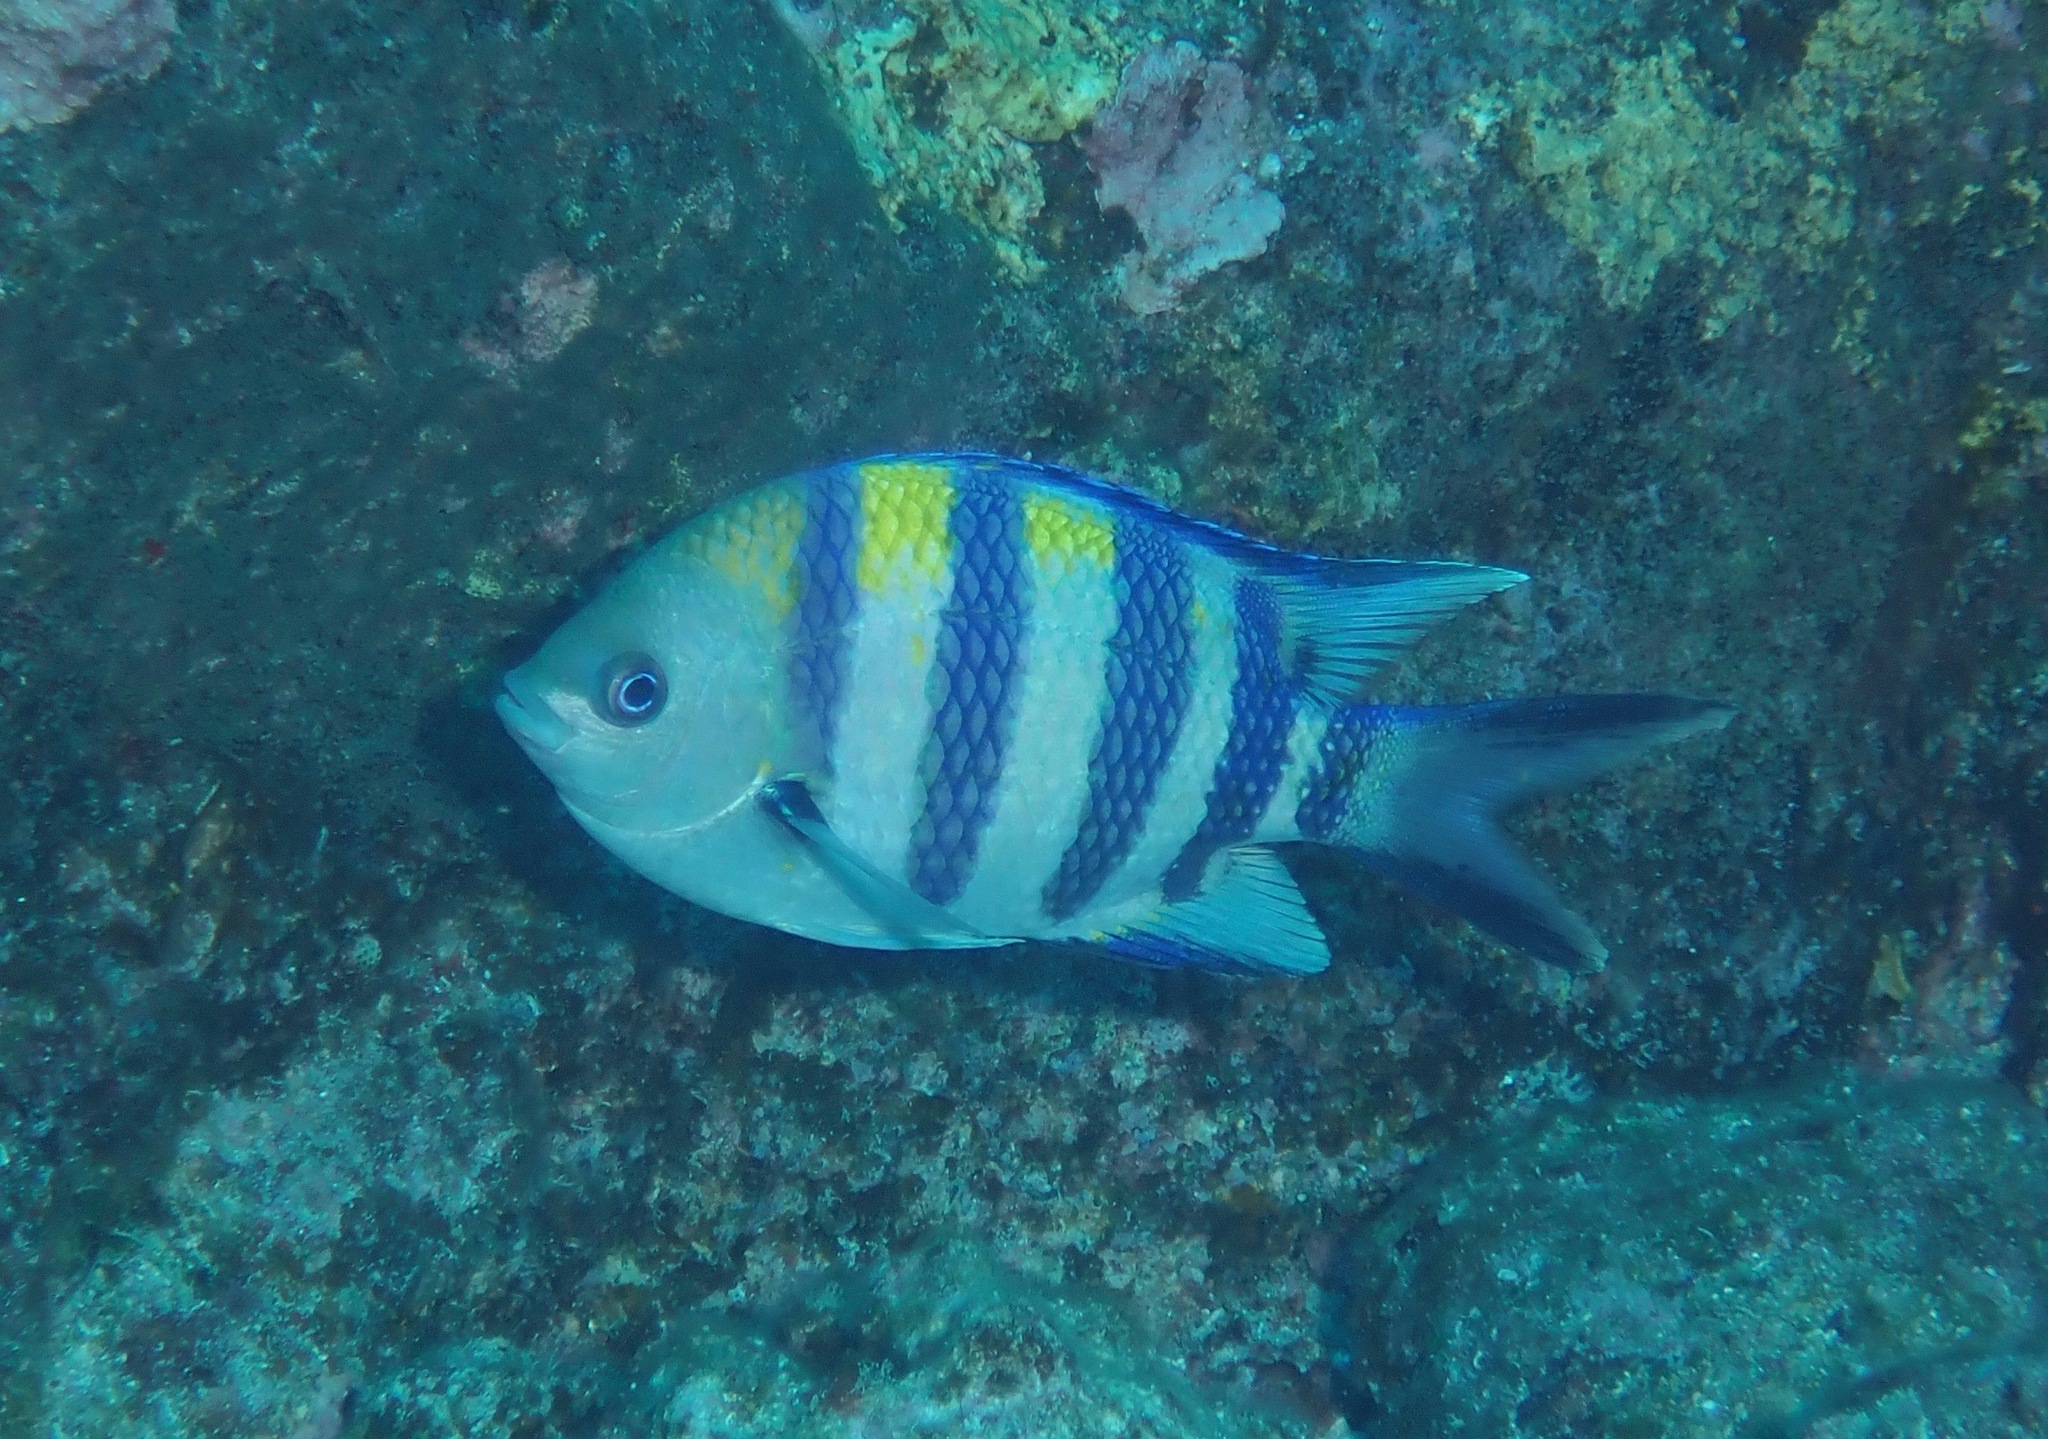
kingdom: Animalia
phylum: Chordata
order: Perciformes
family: Pomacentridae
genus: Abudefduf
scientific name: Abudefduf vaigiensis
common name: Indo-pacific sergeant
